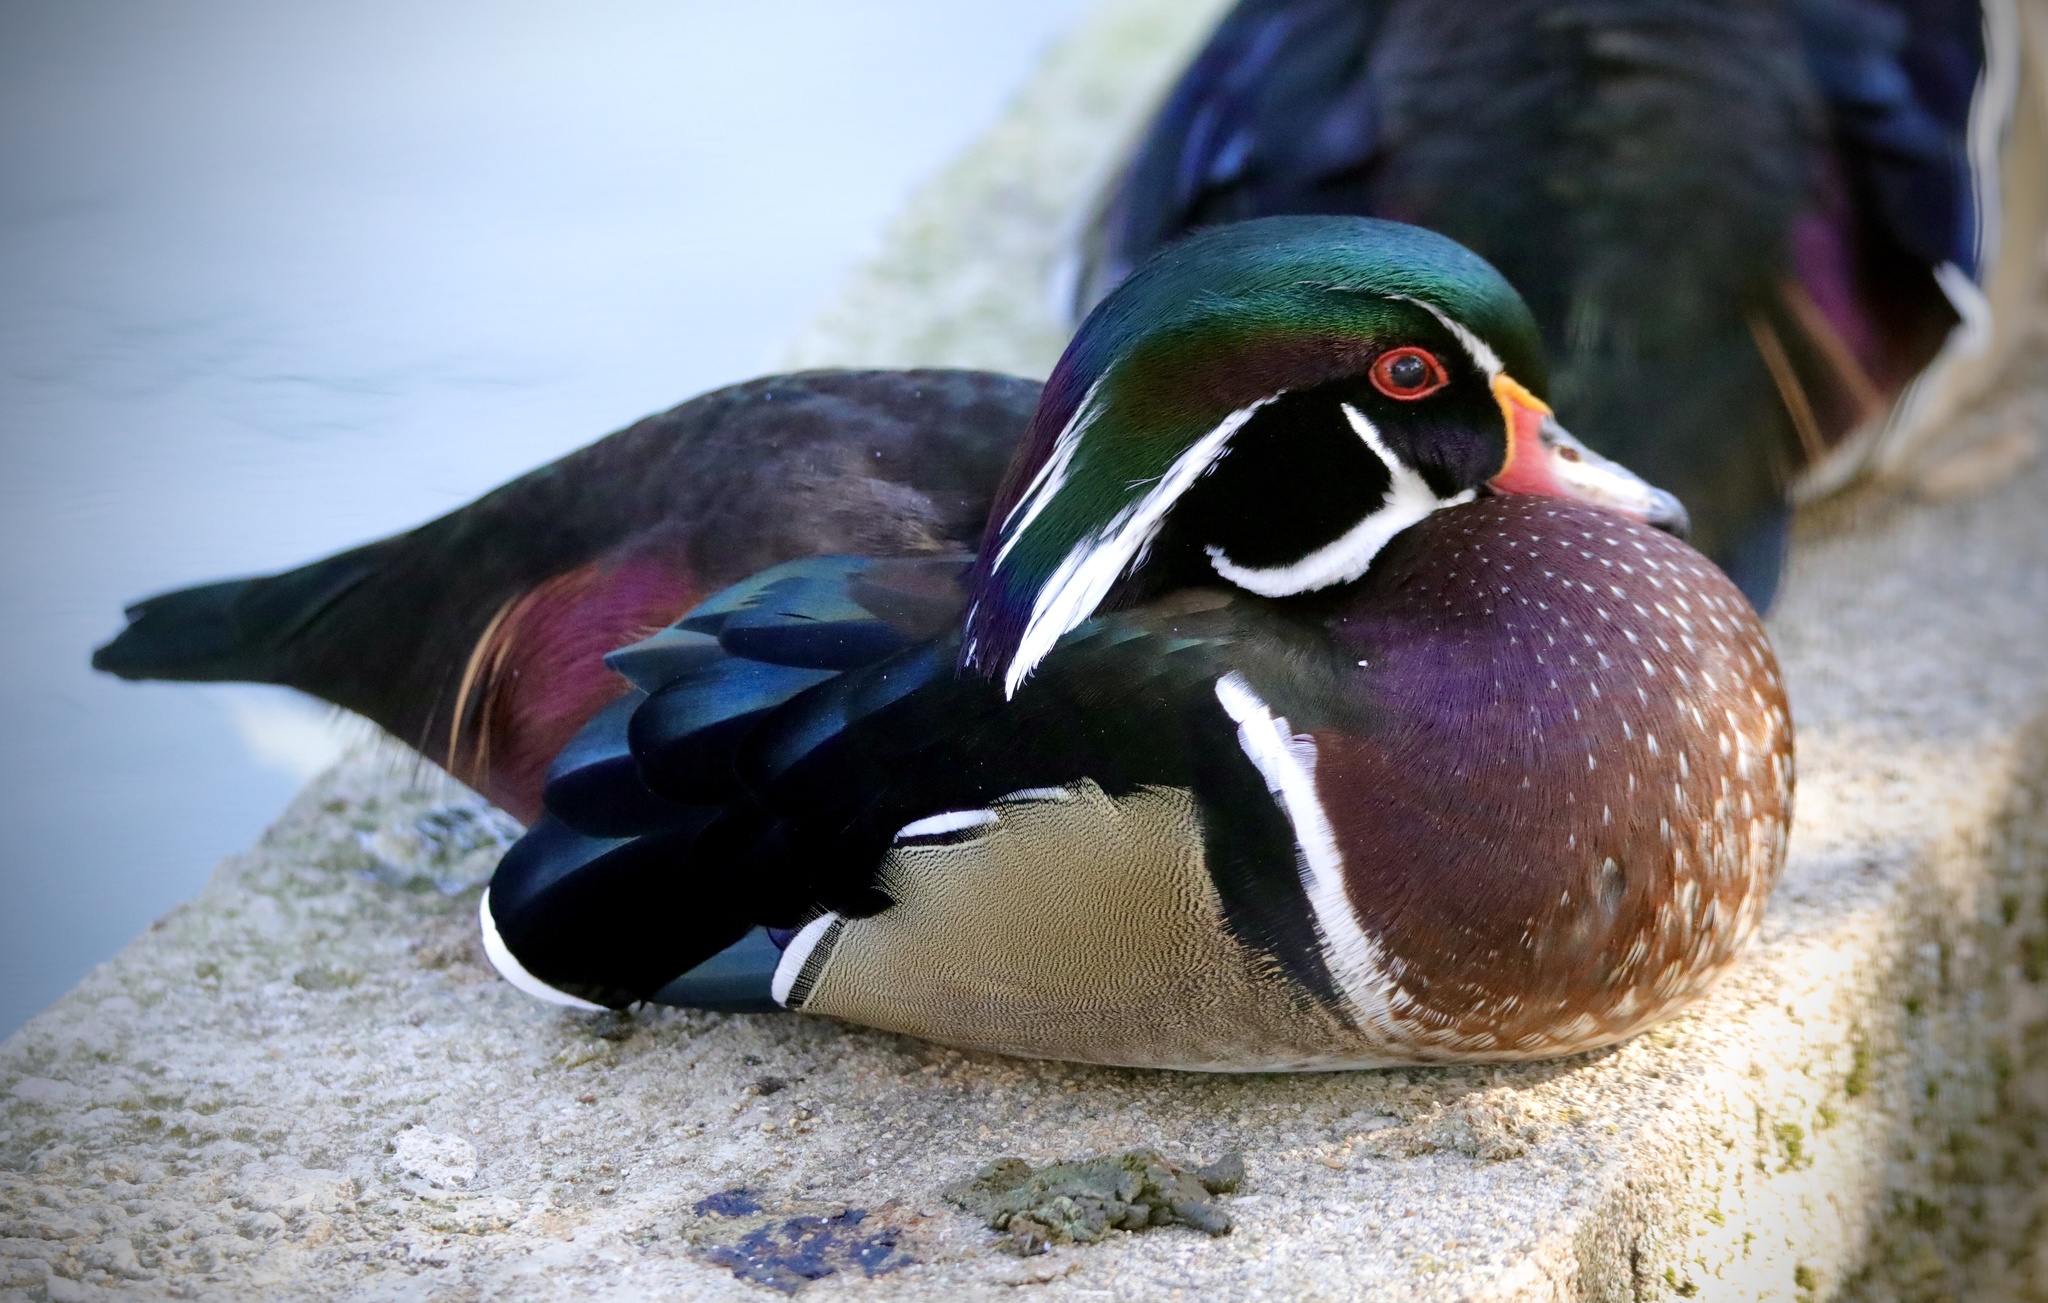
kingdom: Animalia
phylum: Chordata
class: Aves
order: Anseriformes
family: Anatidae
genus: Aix
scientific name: Aix sponsa
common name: Wood duck
